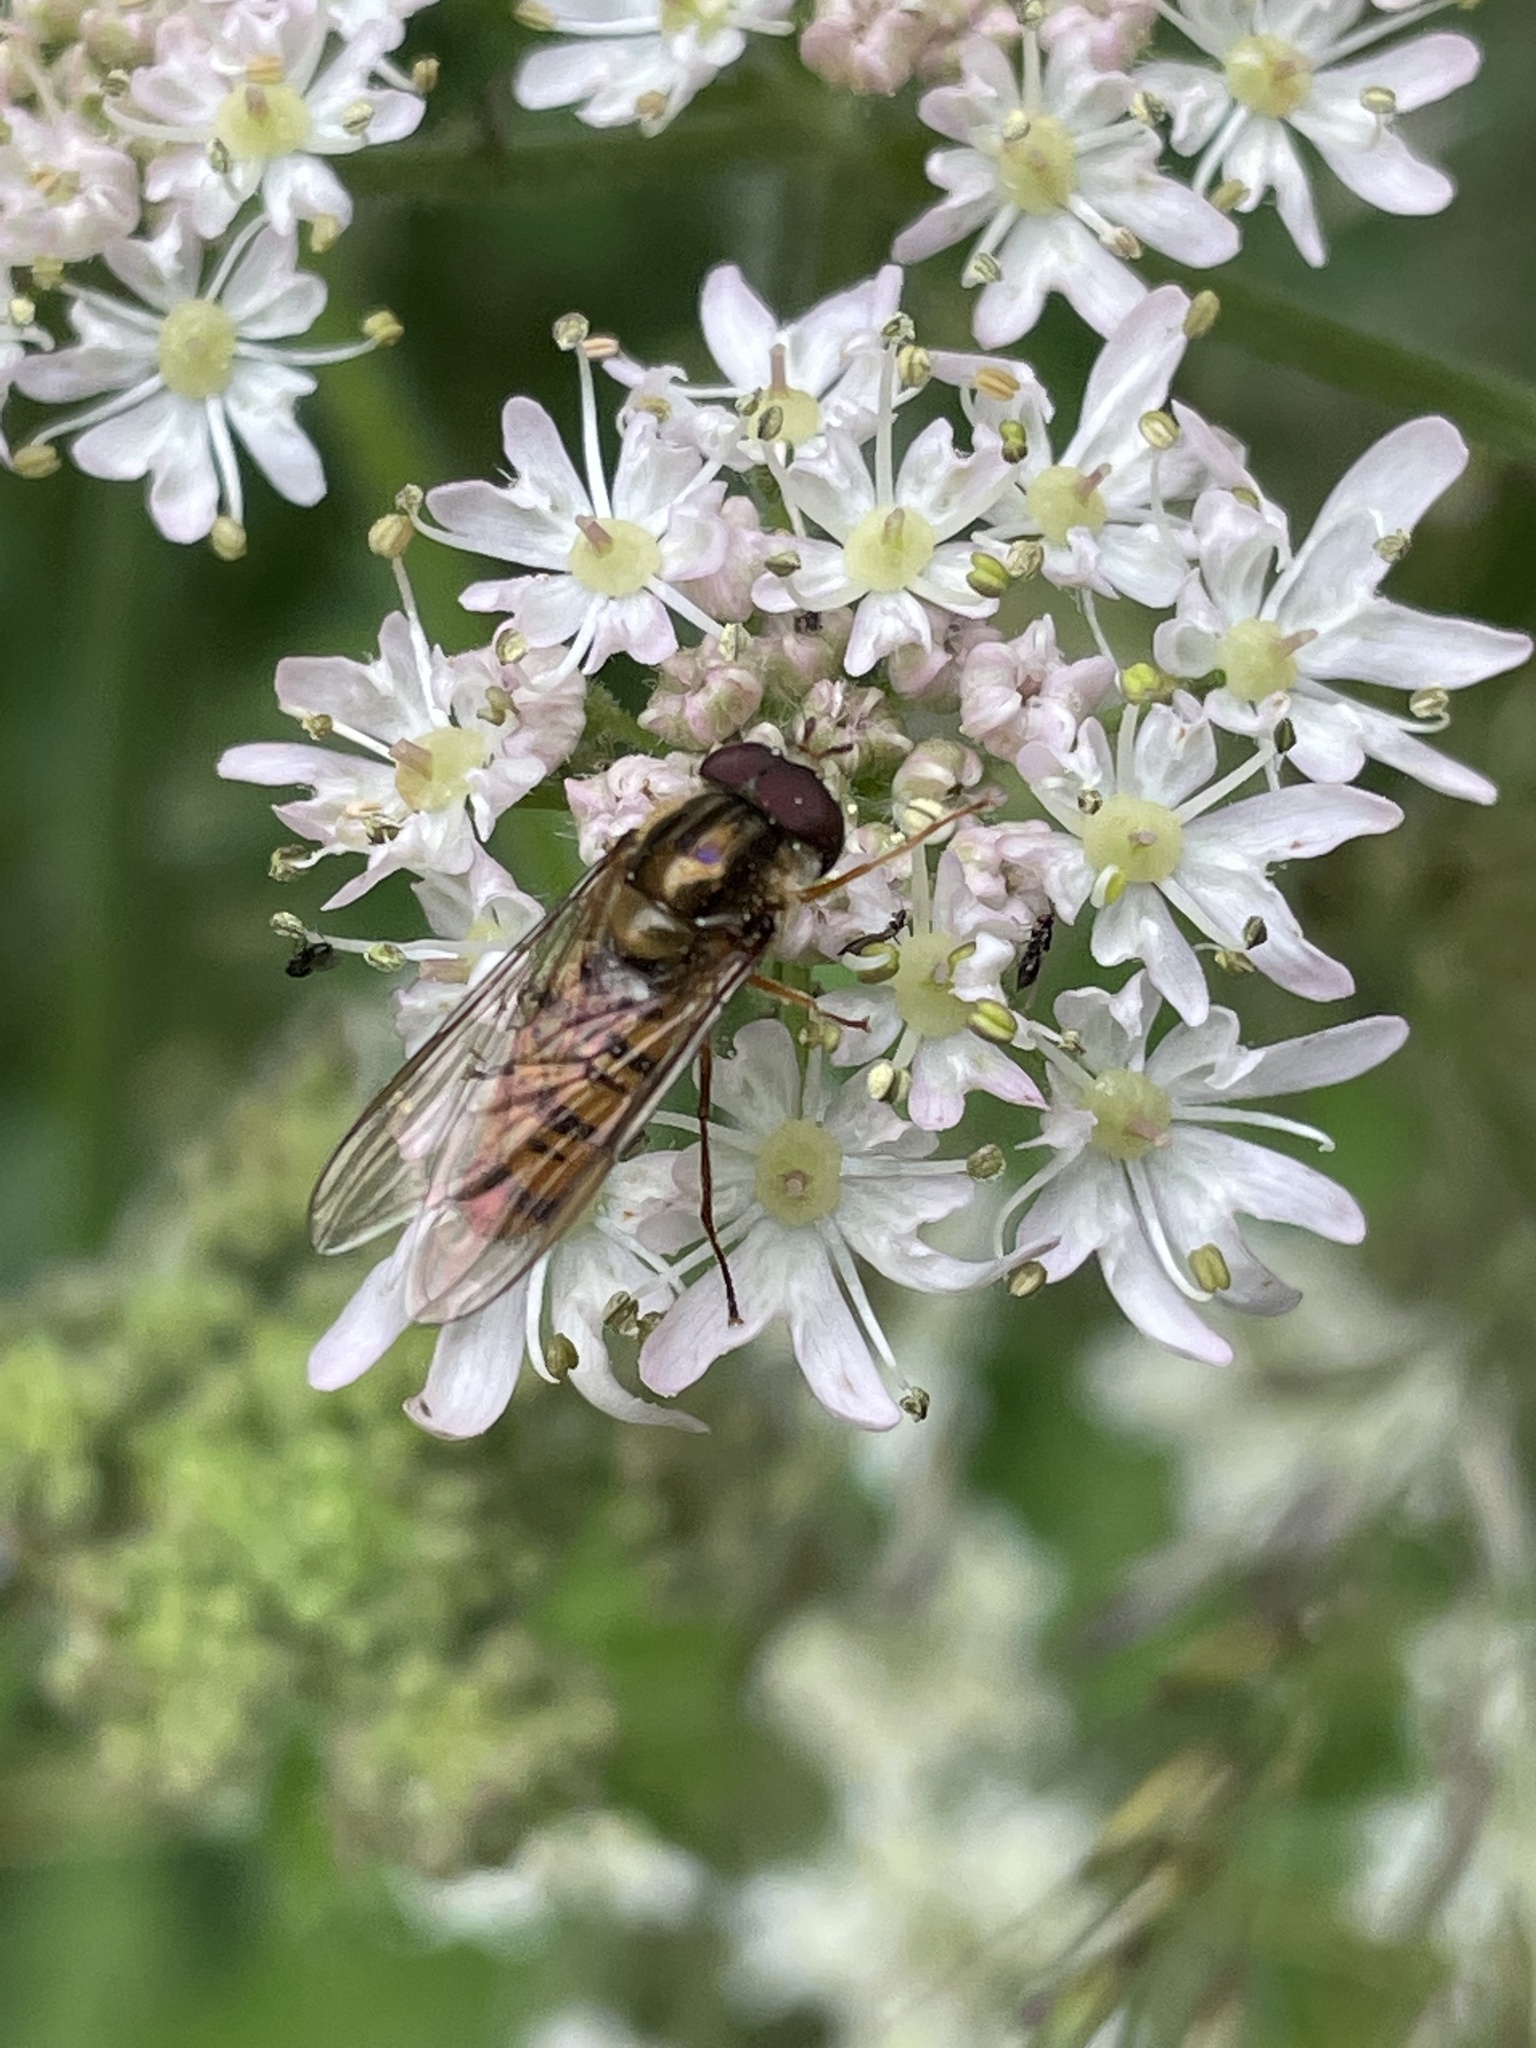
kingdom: Animalia
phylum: Arthropoda
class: Insecta
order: Diptera
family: Syrphidae
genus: Episyrphus
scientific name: Episyrphus balteatus
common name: Marmalade hoverfly
